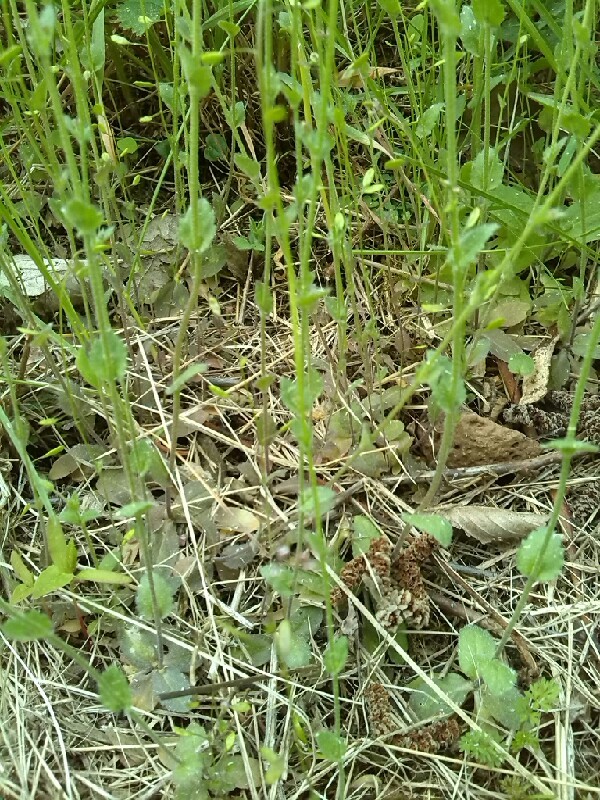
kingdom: Plantae
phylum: Tracheophyta
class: Magnoliopsida
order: Brassicales
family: Brassicaceae
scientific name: Brassicaceae
